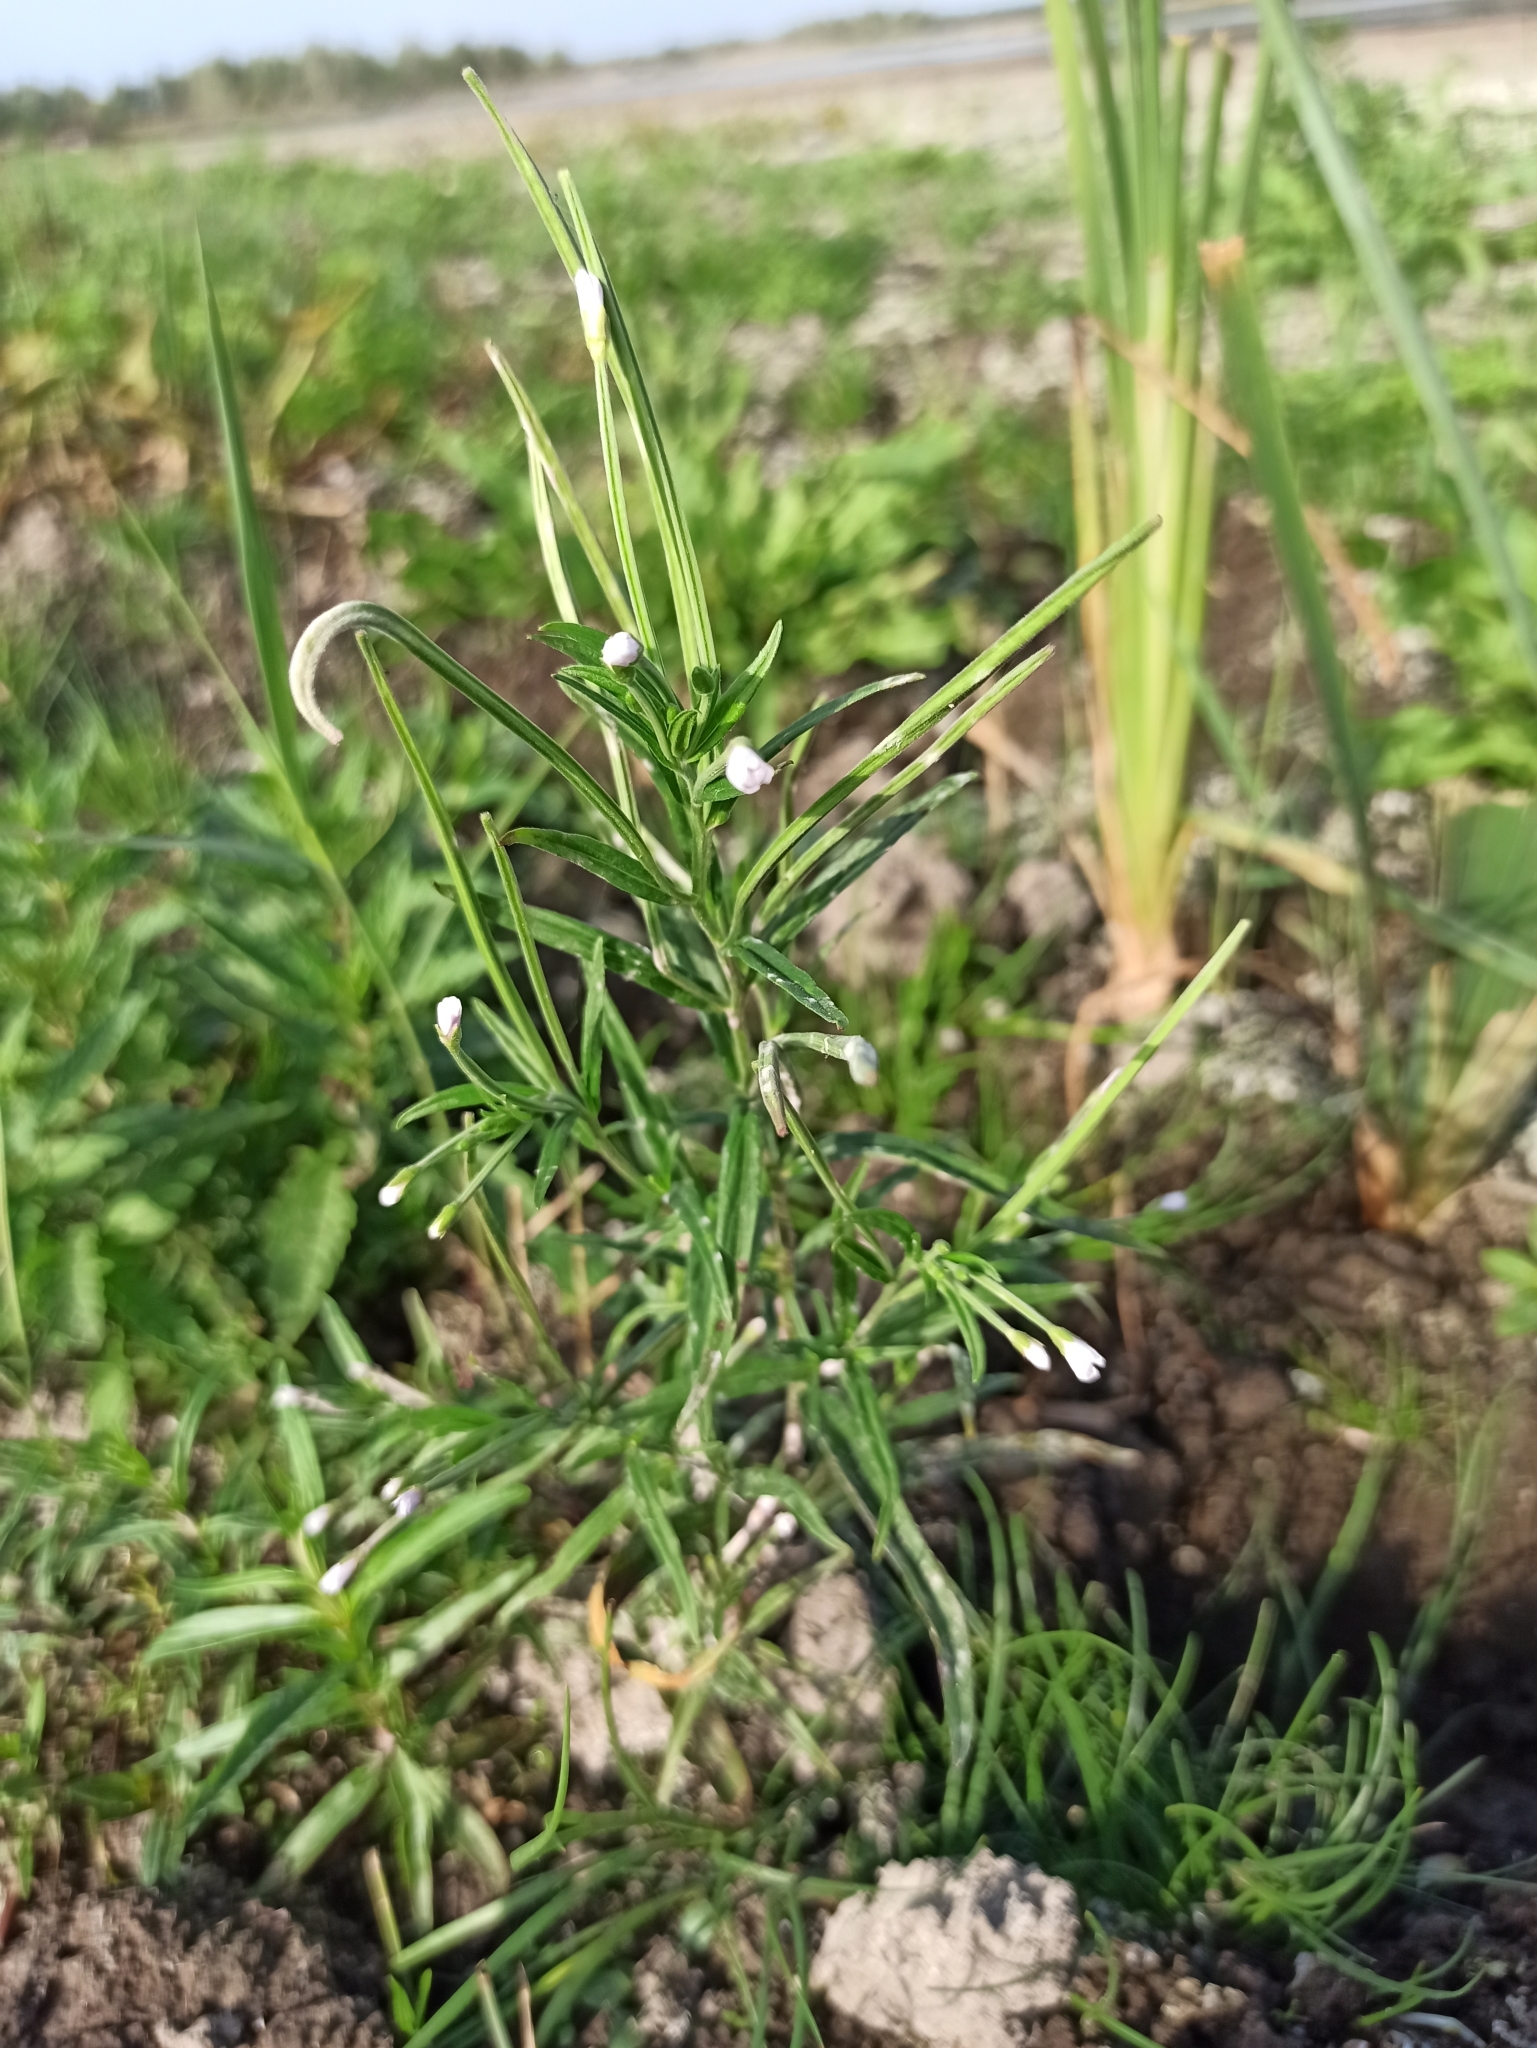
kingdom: Plantae
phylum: Tracheophyta
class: Magnoliopsida
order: Myrtales
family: Onagraceae
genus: Epilobium
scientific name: Epilobium palustre
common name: Marsh willowherb
